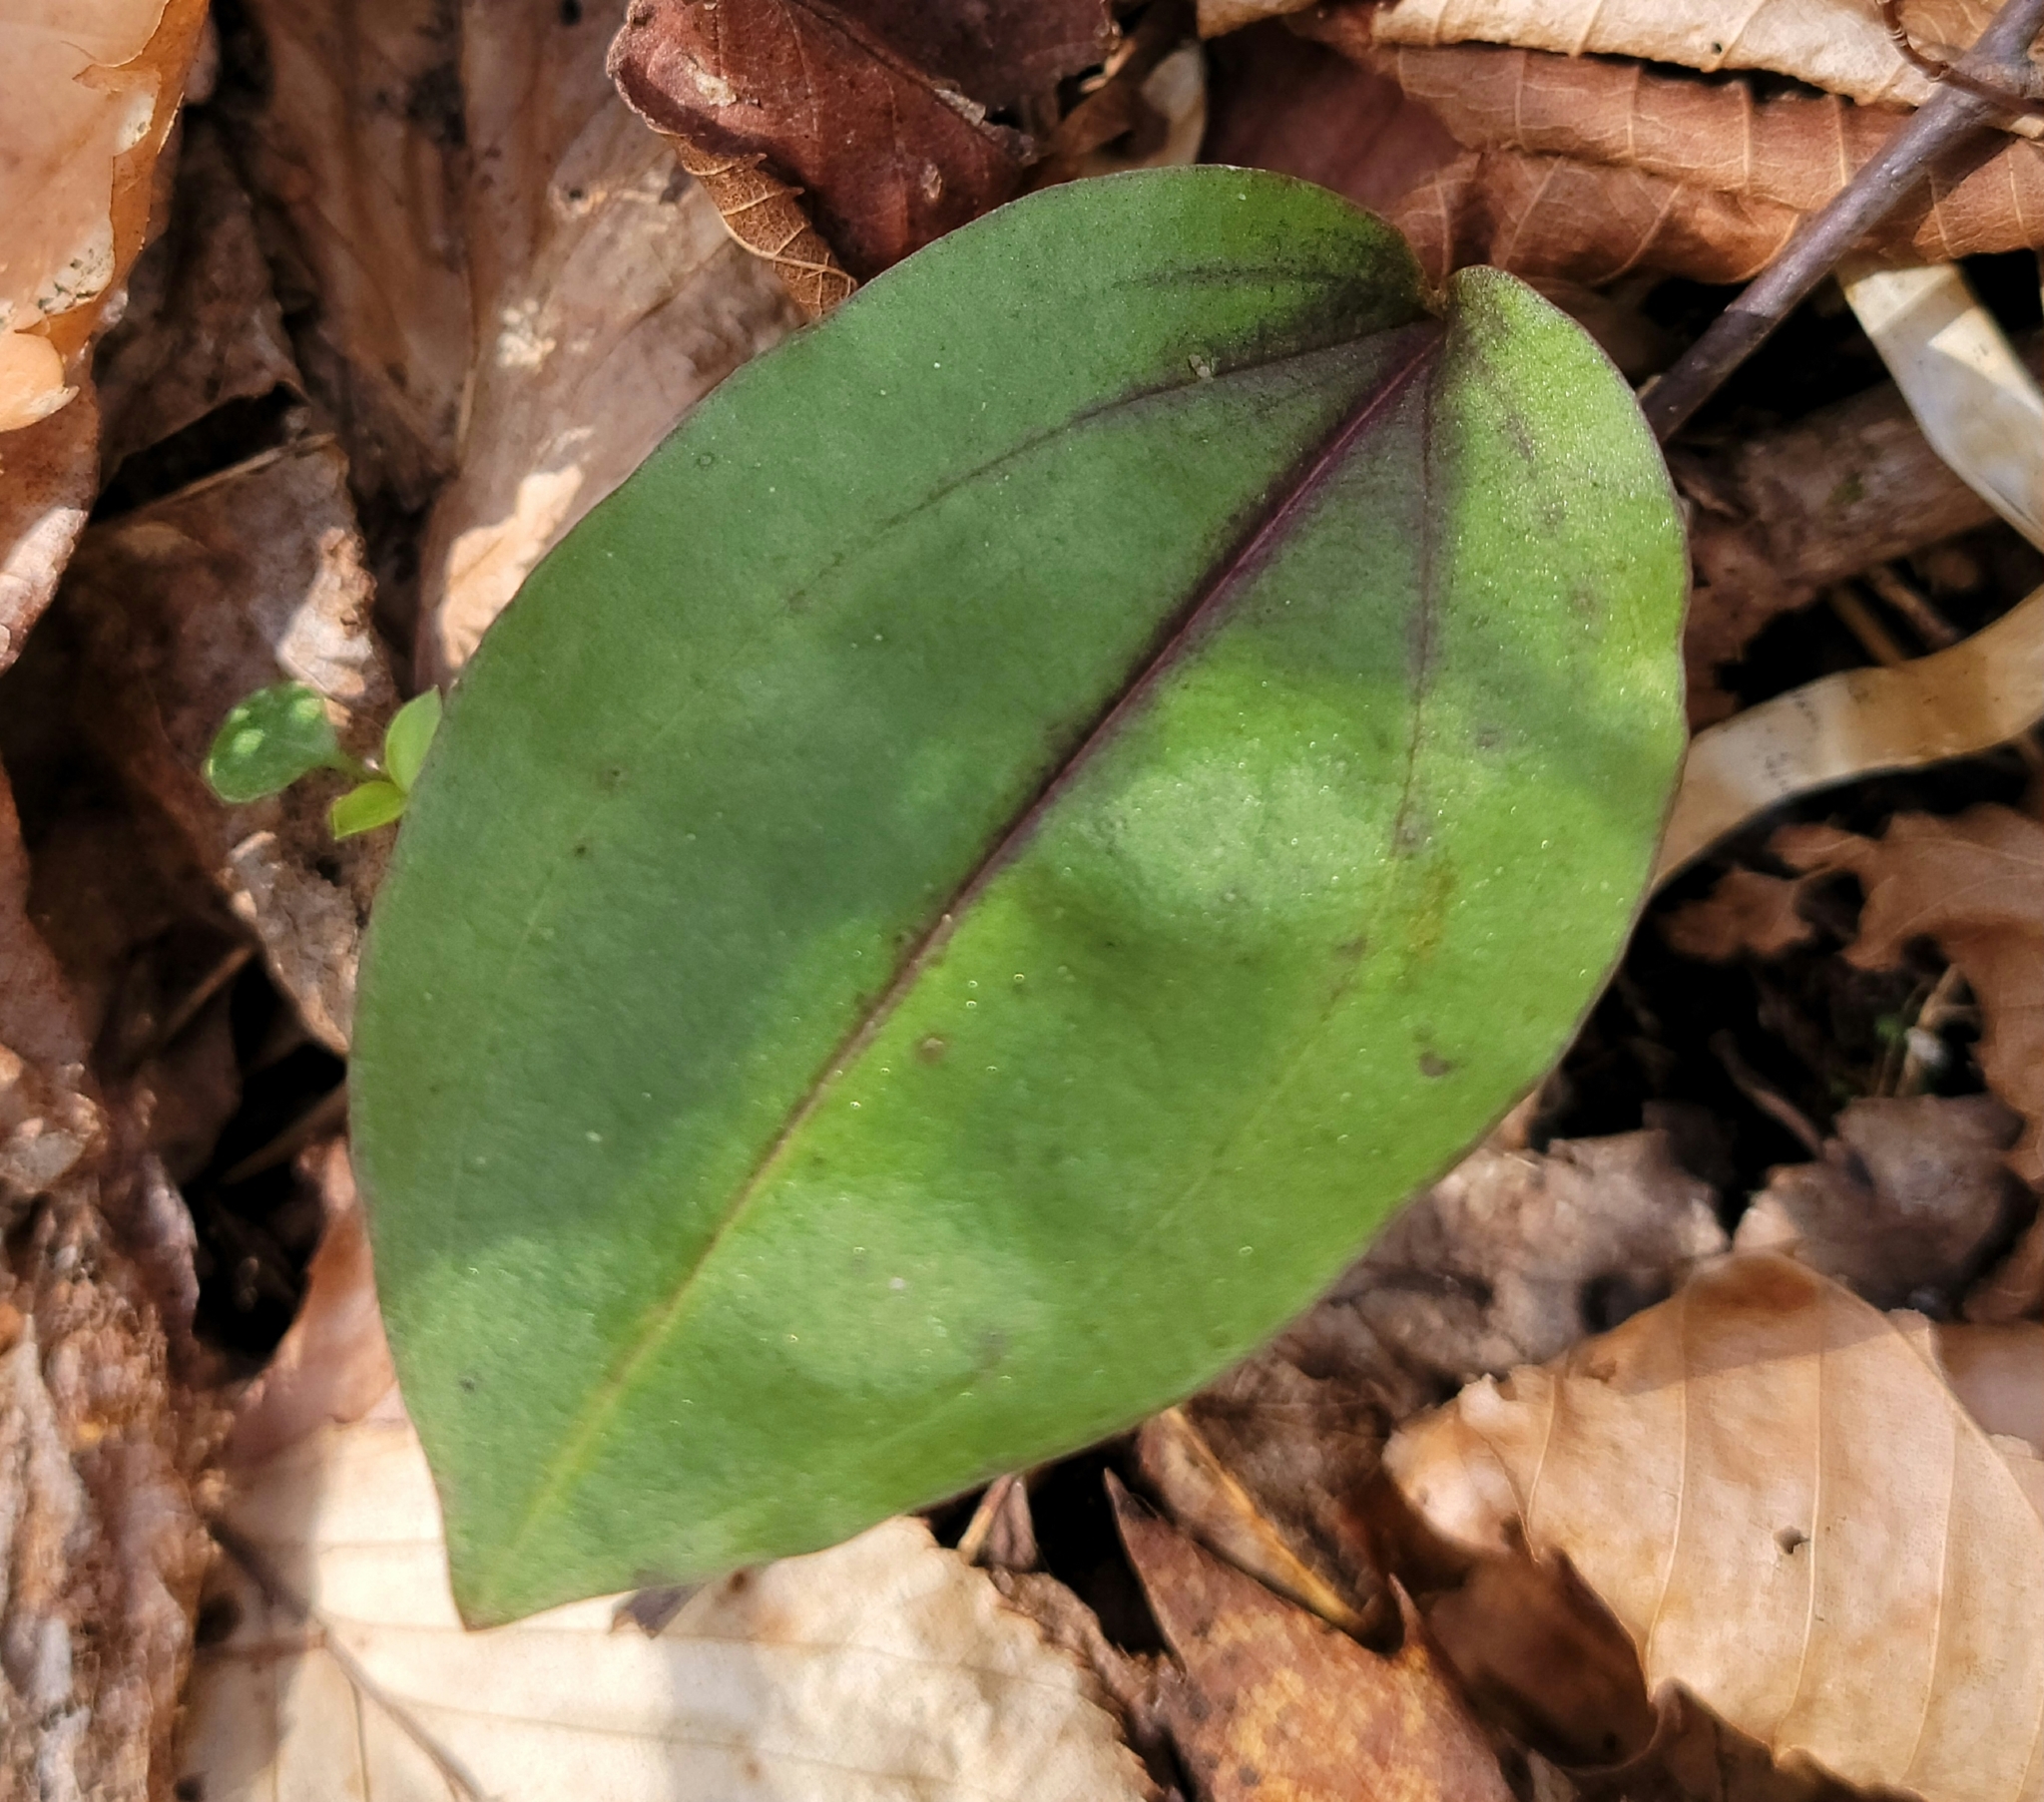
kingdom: Plantae
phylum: Tracheophyta
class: Liliopsida
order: Asparagales
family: Orchidaceae
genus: Tipularia
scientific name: Tipularia discolor
